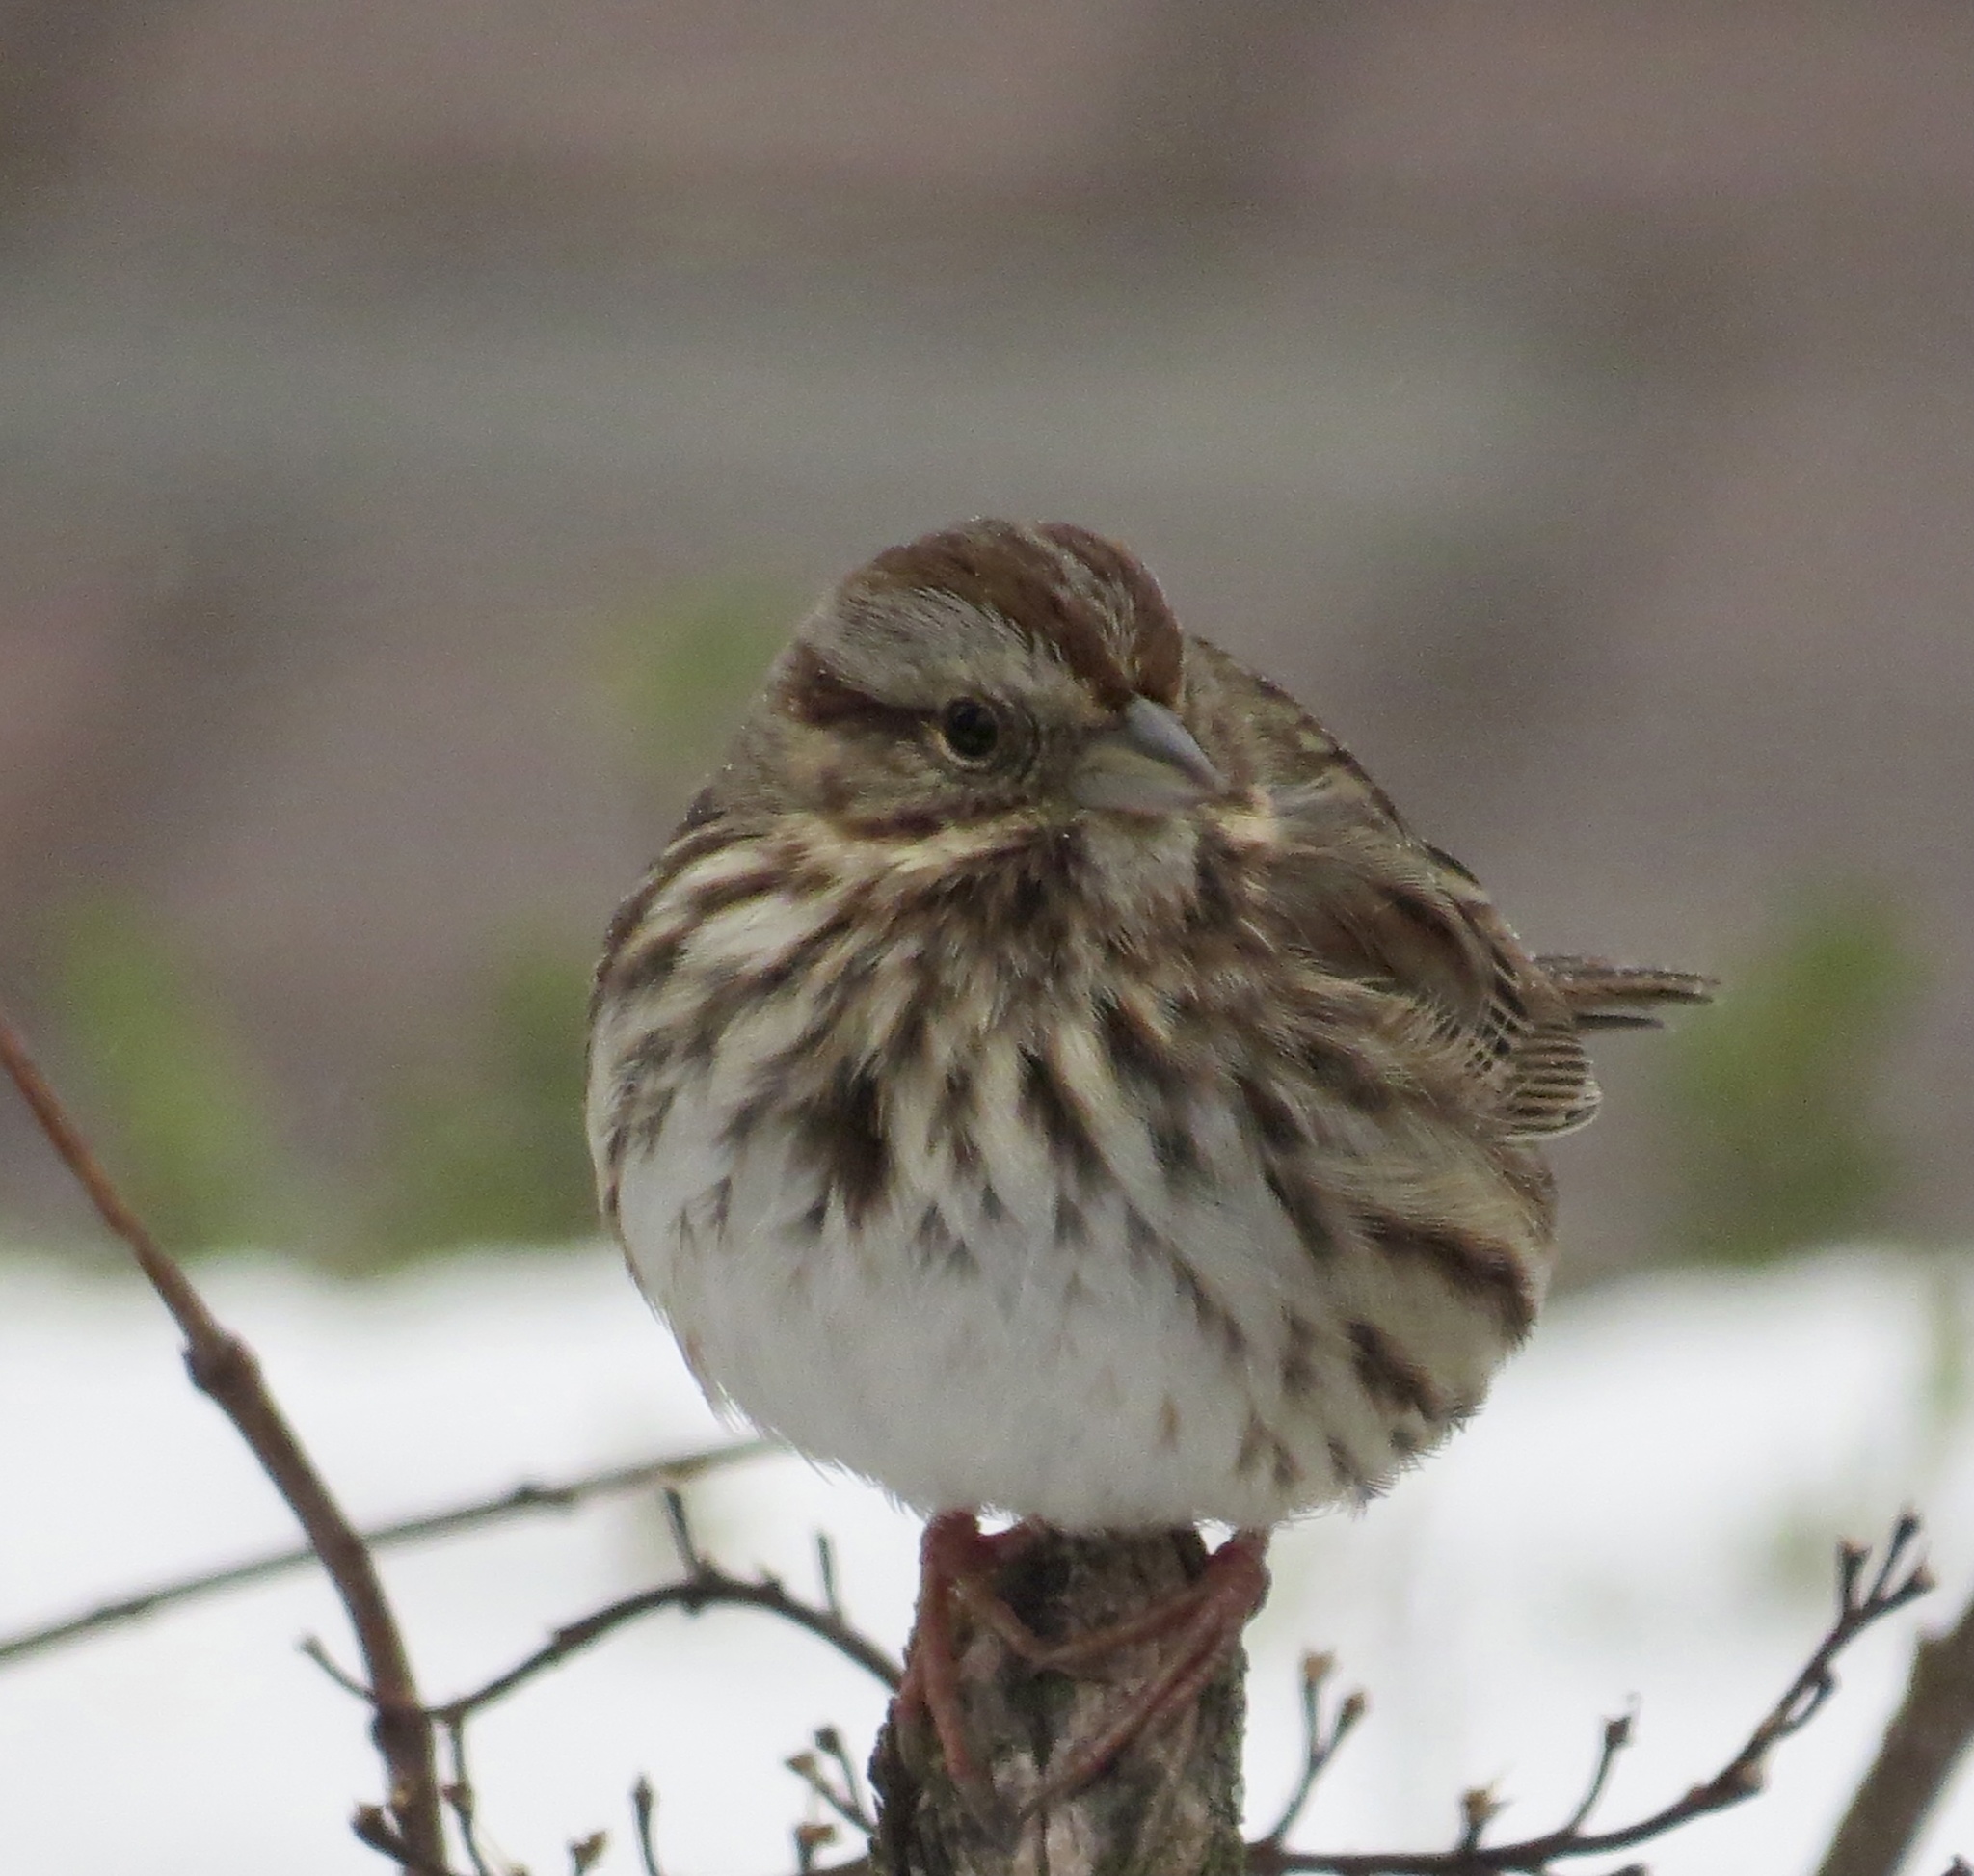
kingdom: Animalia
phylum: Chordata
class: Aves
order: Passeriformes
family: Passerellidae
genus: Melospiza
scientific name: Melospiza melodia
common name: Song sparrow
